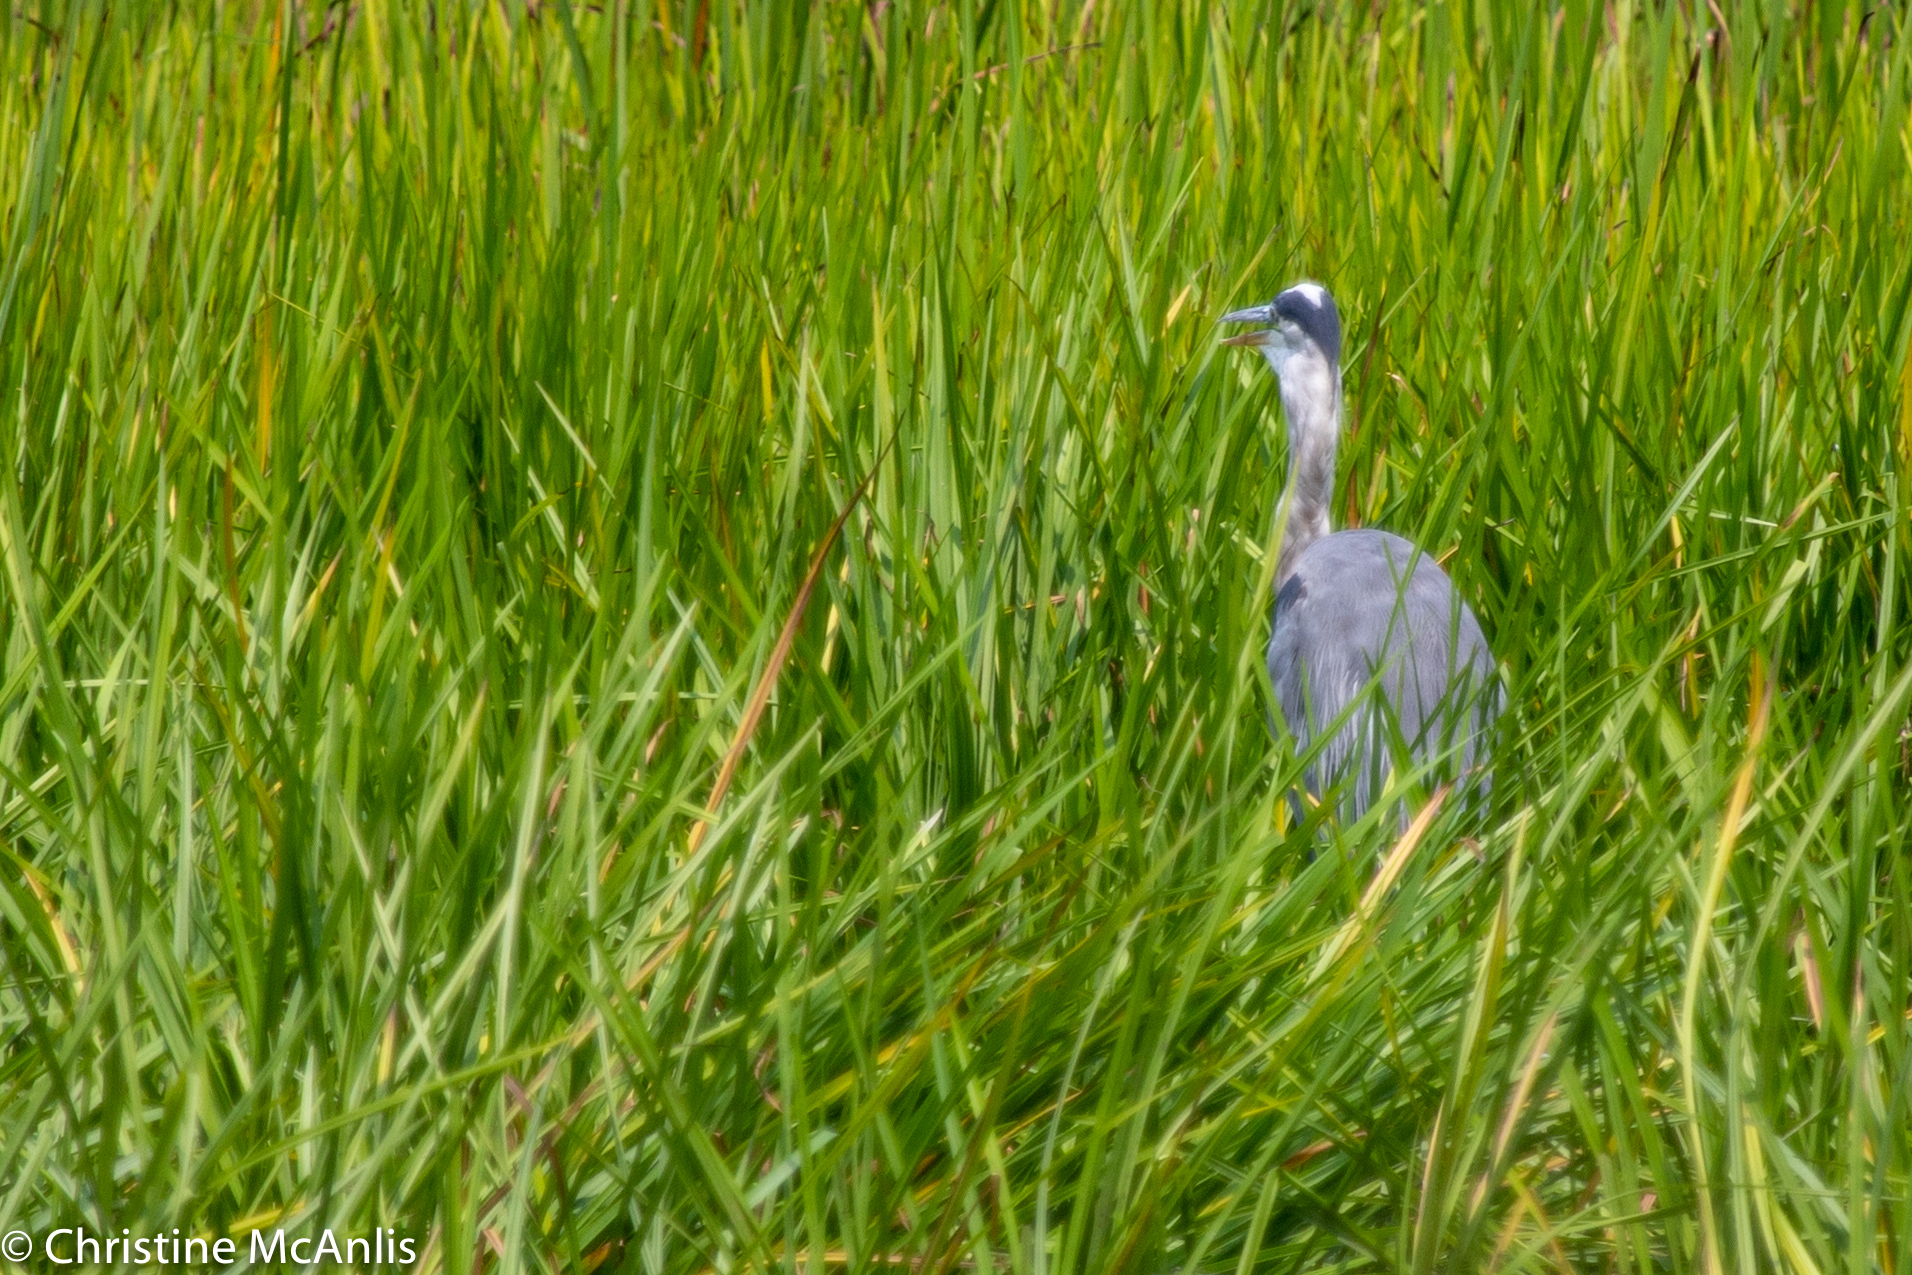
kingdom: Animalia
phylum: Chordata
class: Aves
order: Pelecaniformes
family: Ardeidae
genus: Ardea
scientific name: Ardea herodias
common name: Great blue heron
